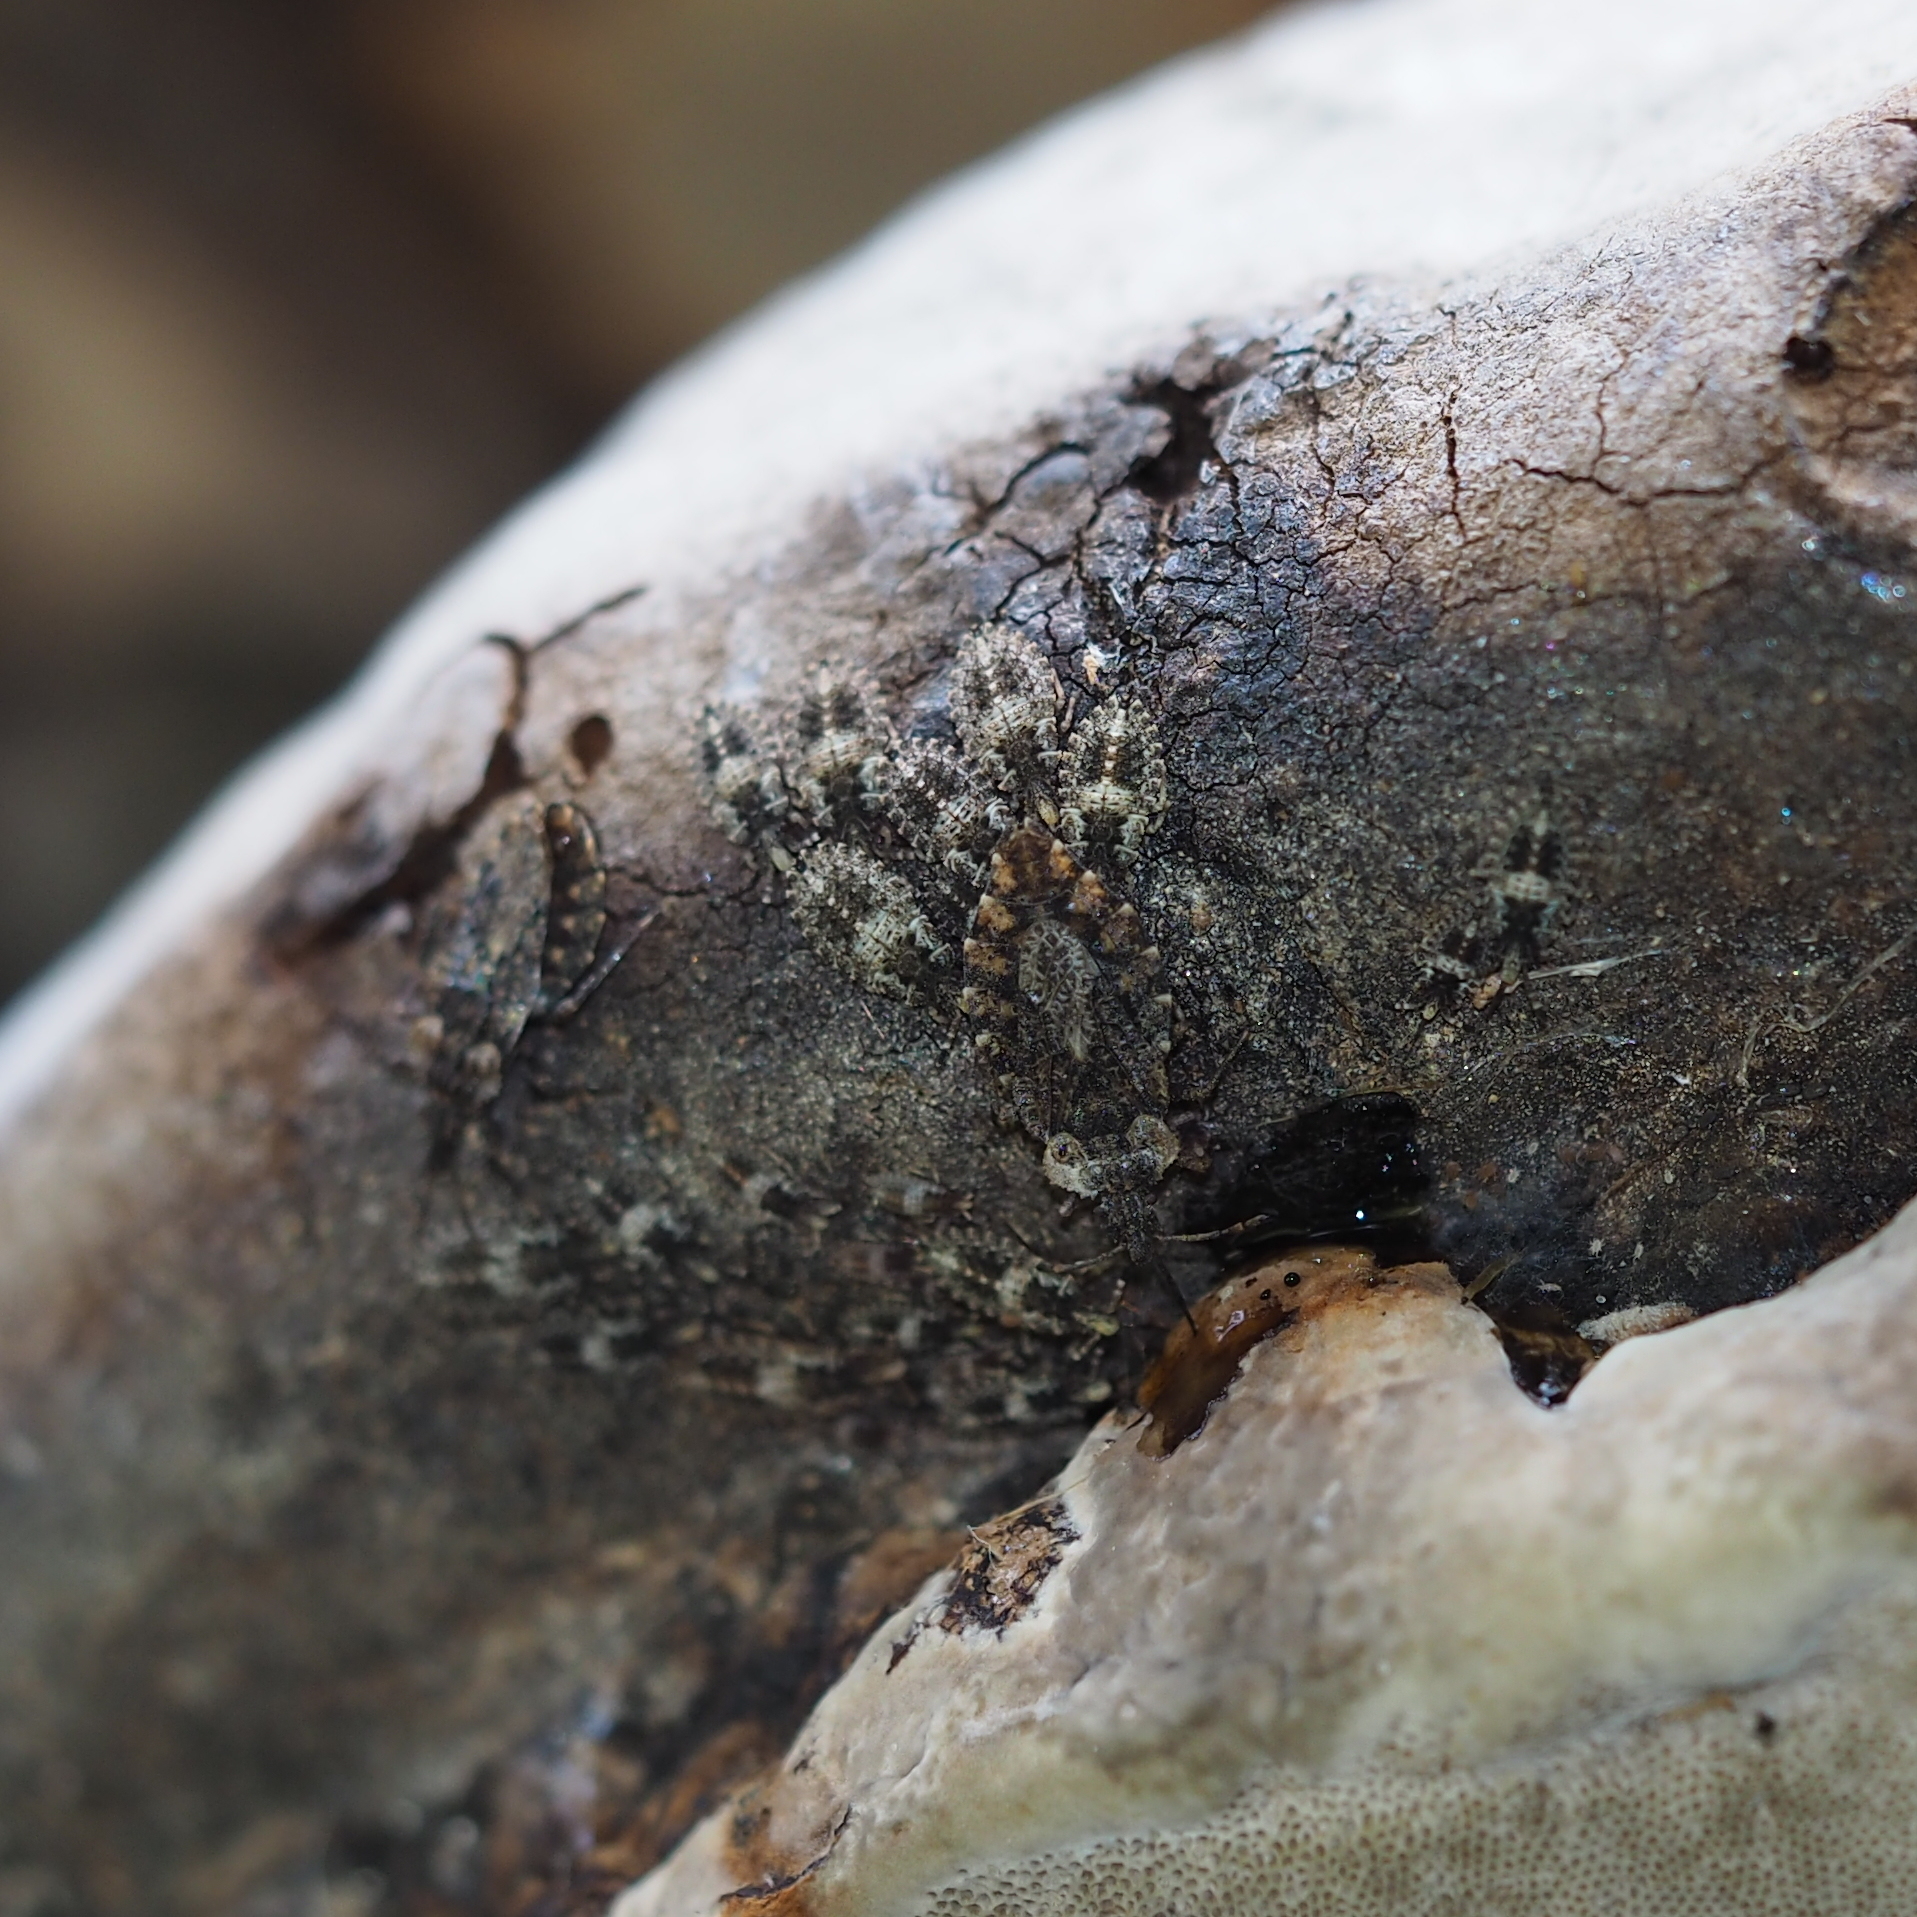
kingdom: Animalia
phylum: Arthropoda
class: Insecta
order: Hemiptera
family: Aradidae
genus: Aradus
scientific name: Aradus betulae
